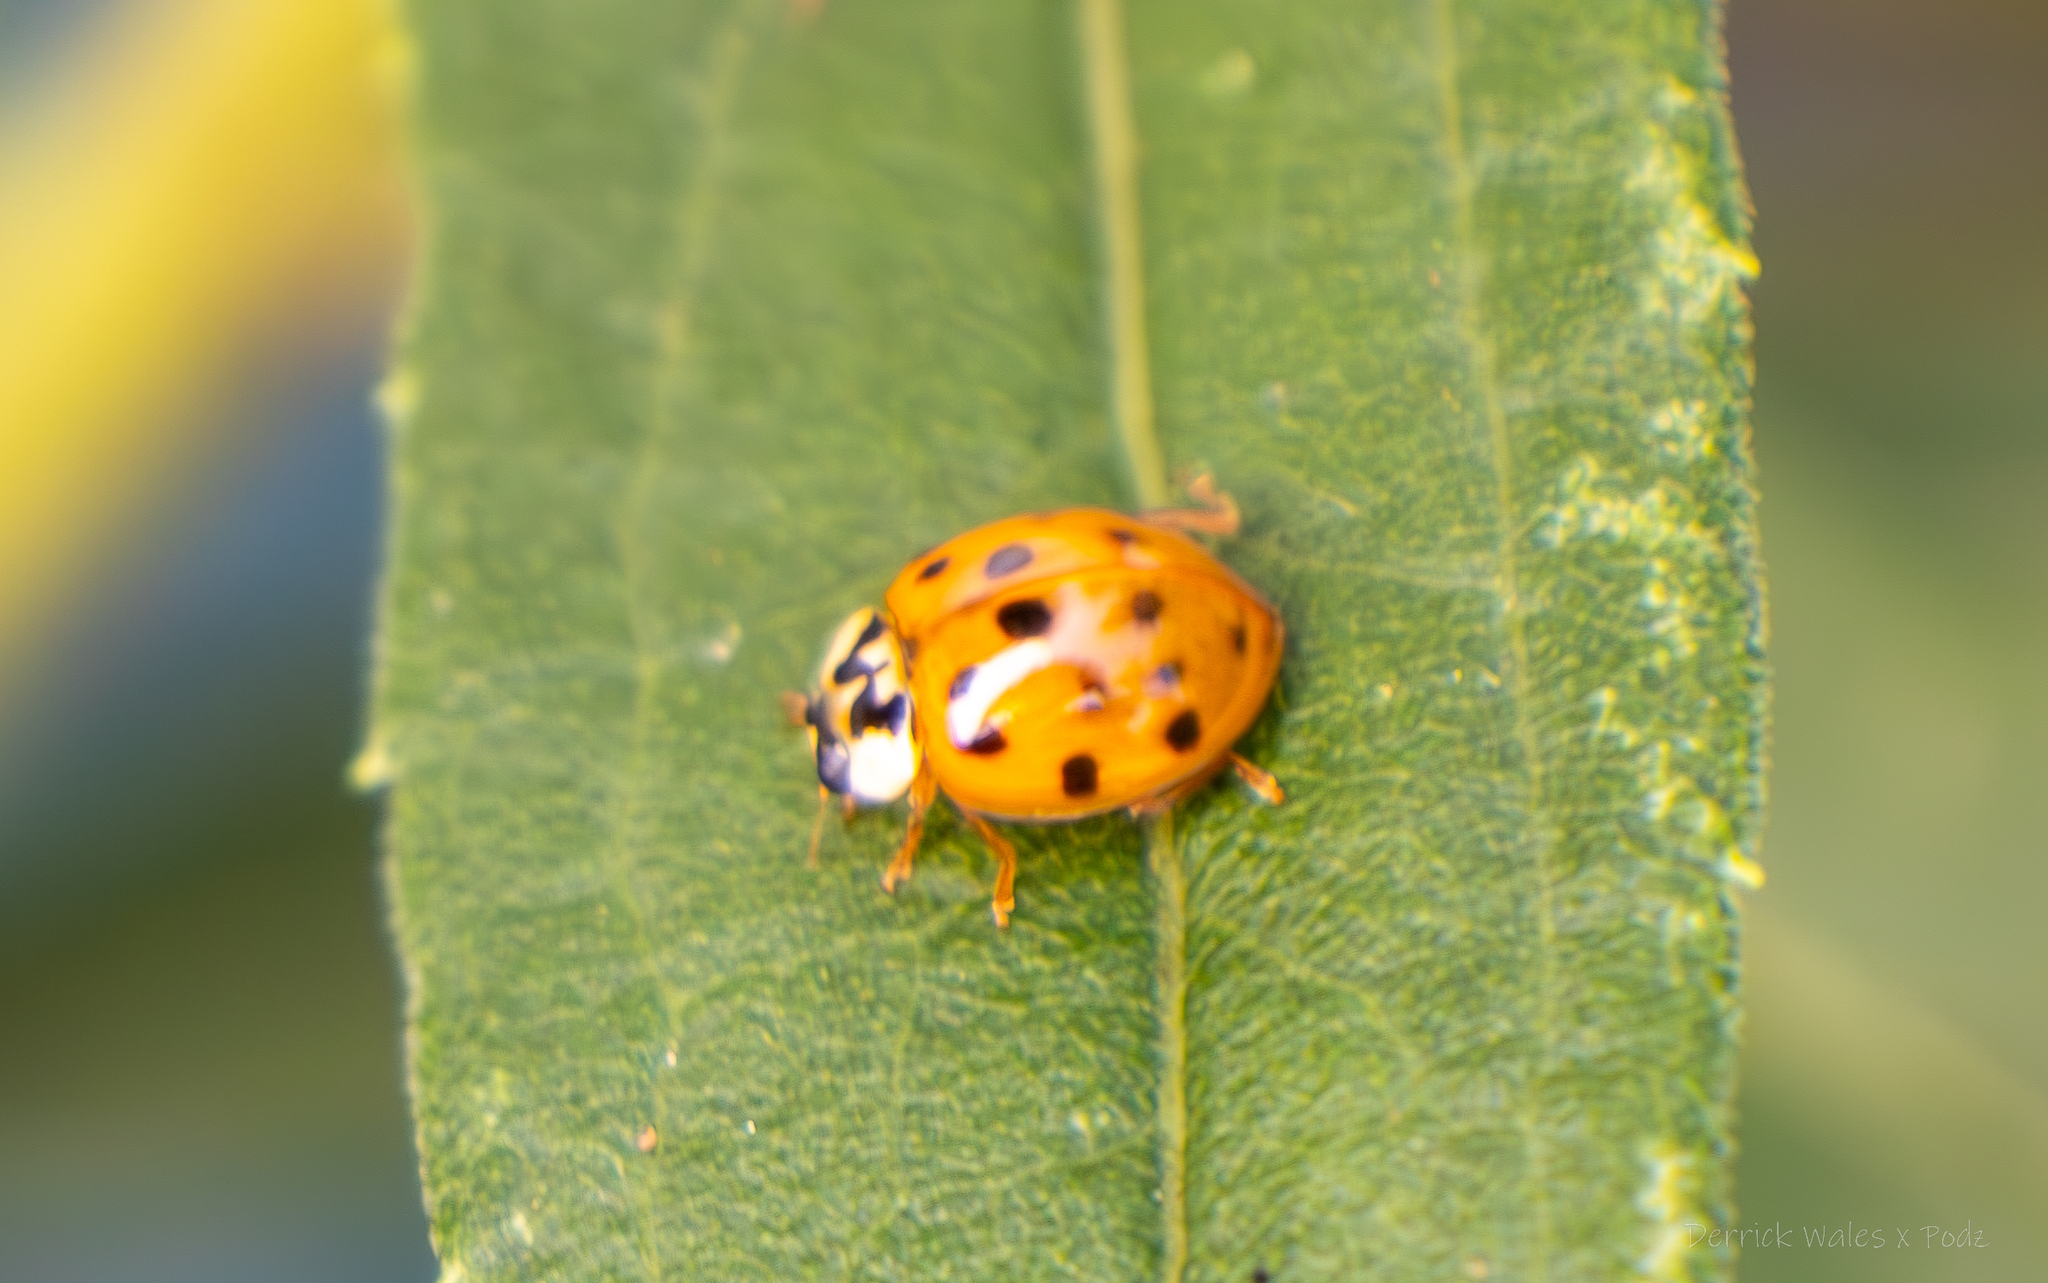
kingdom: Animalia
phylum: Arthropoda
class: Insecta
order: Coleoptera
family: Coccinellidae
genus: Harmonia
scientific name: Harmonia axyridis
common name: Harlequin ladybird
